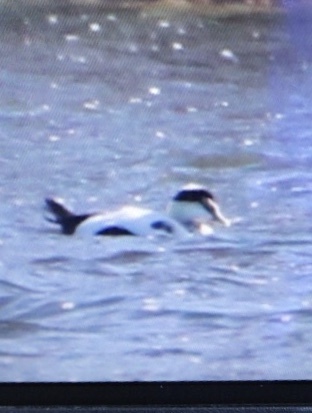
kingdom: Animalia
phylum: Chordata
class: Aves
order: Anseriformes
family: Anatidae
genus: Somateria
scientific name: Somateria mollissima
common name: Common eider
